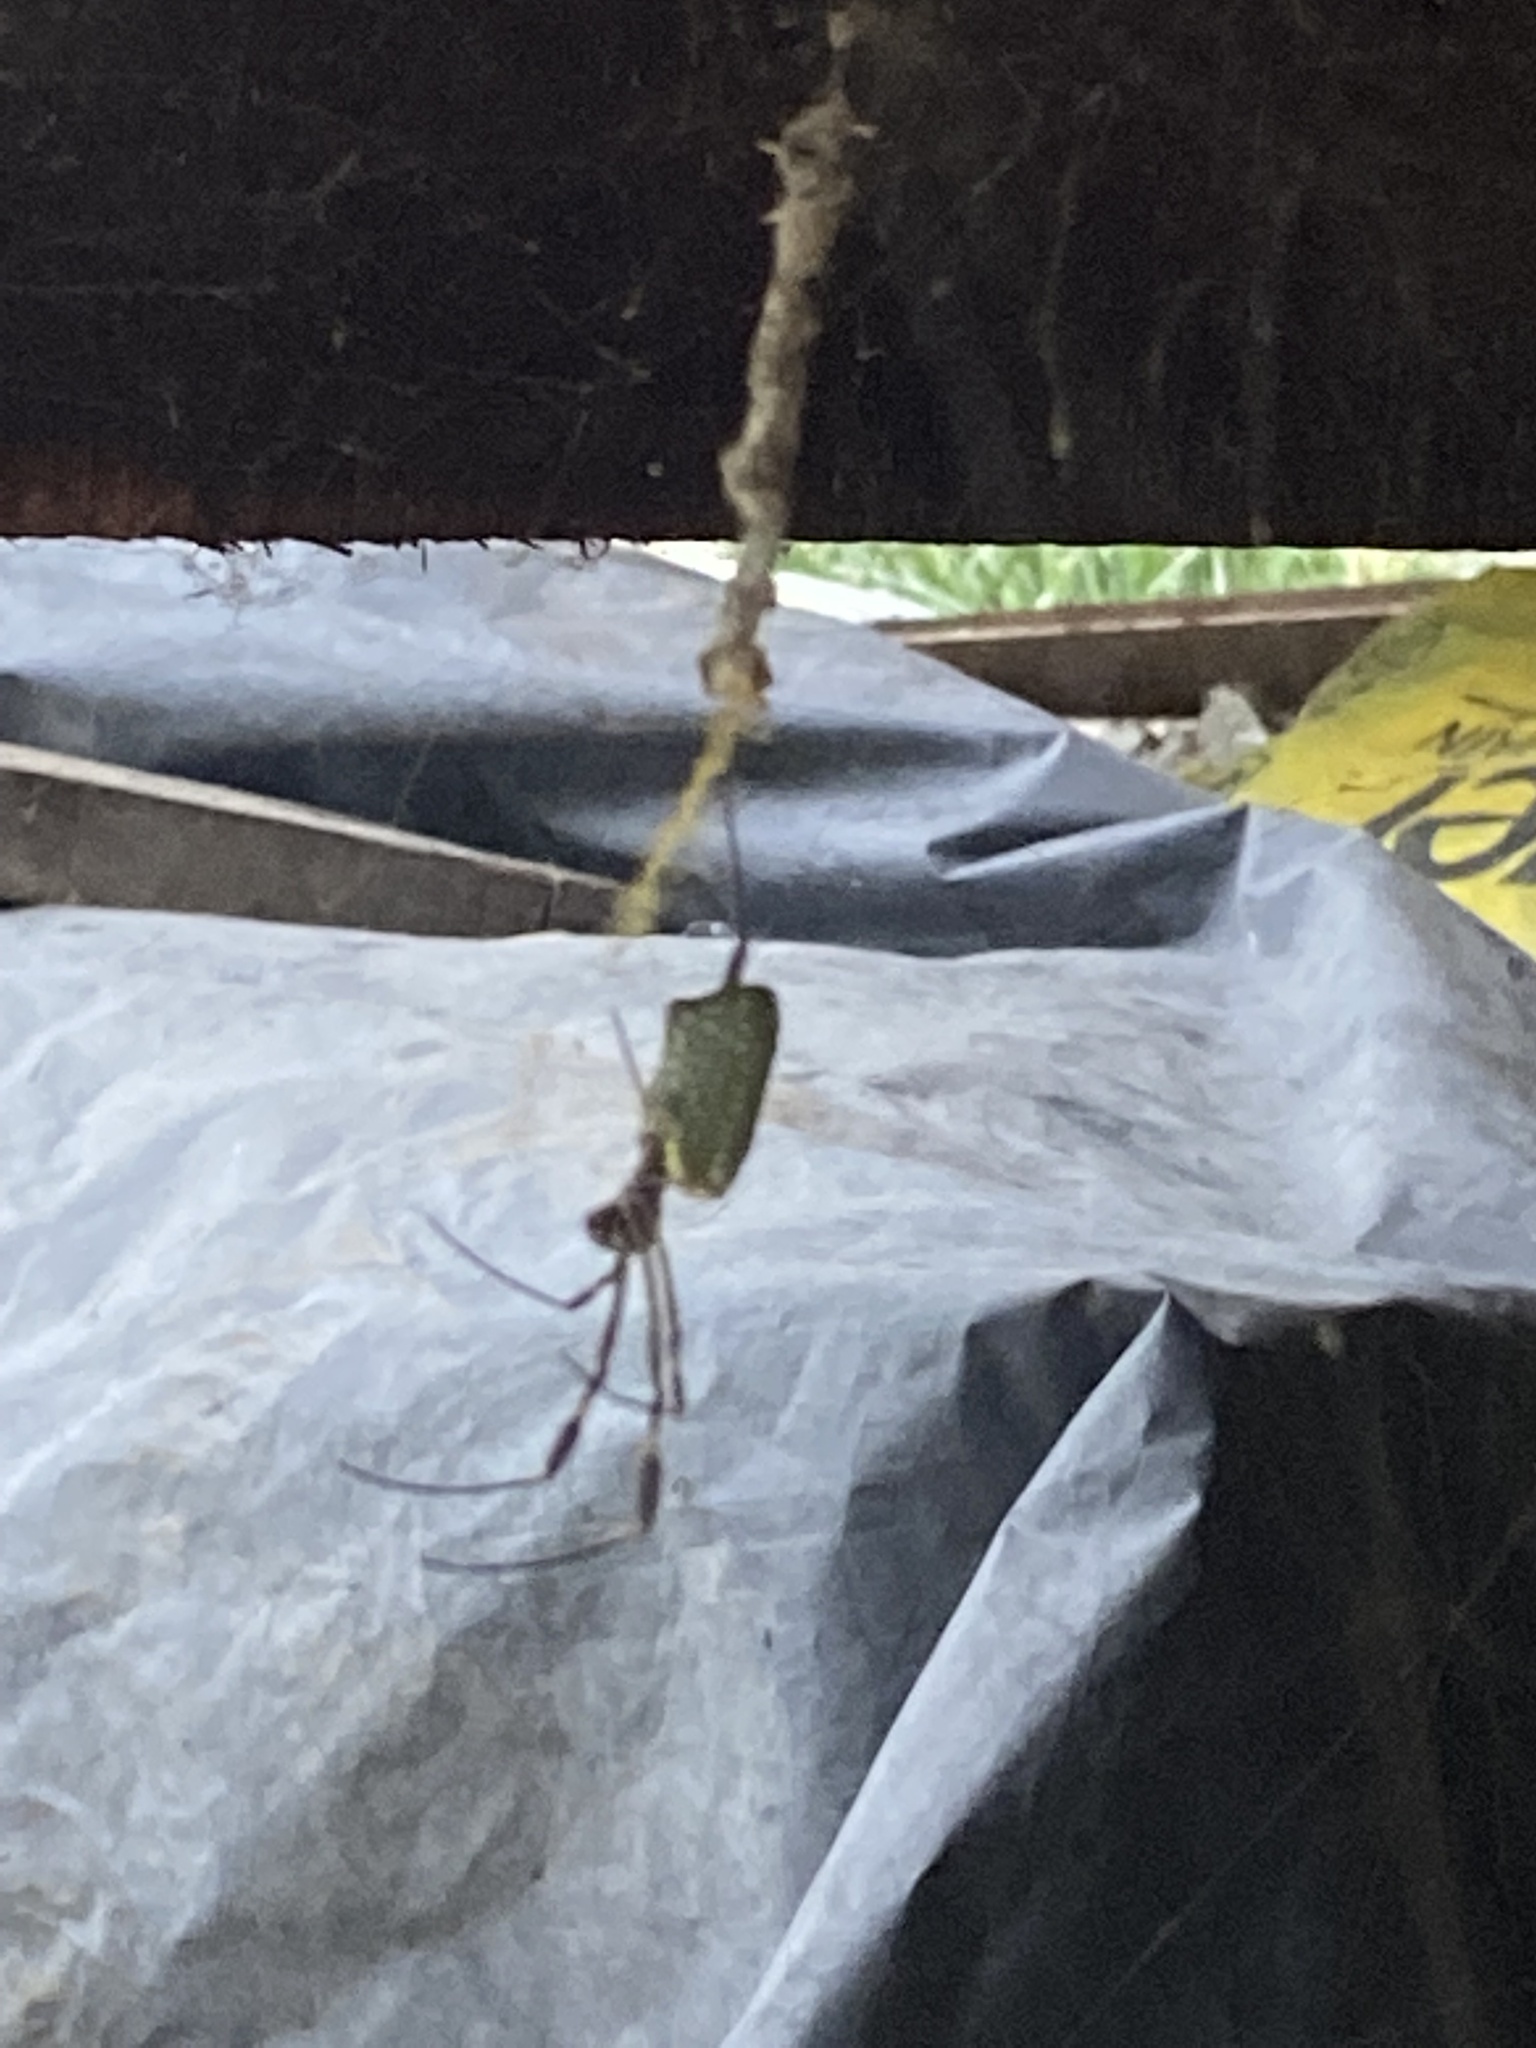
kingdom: Animalia
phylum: Arthropoda
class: Arachnida
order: Araneae
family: Araneidae
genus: Trichonephila
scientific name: Trichonephila clavipes
